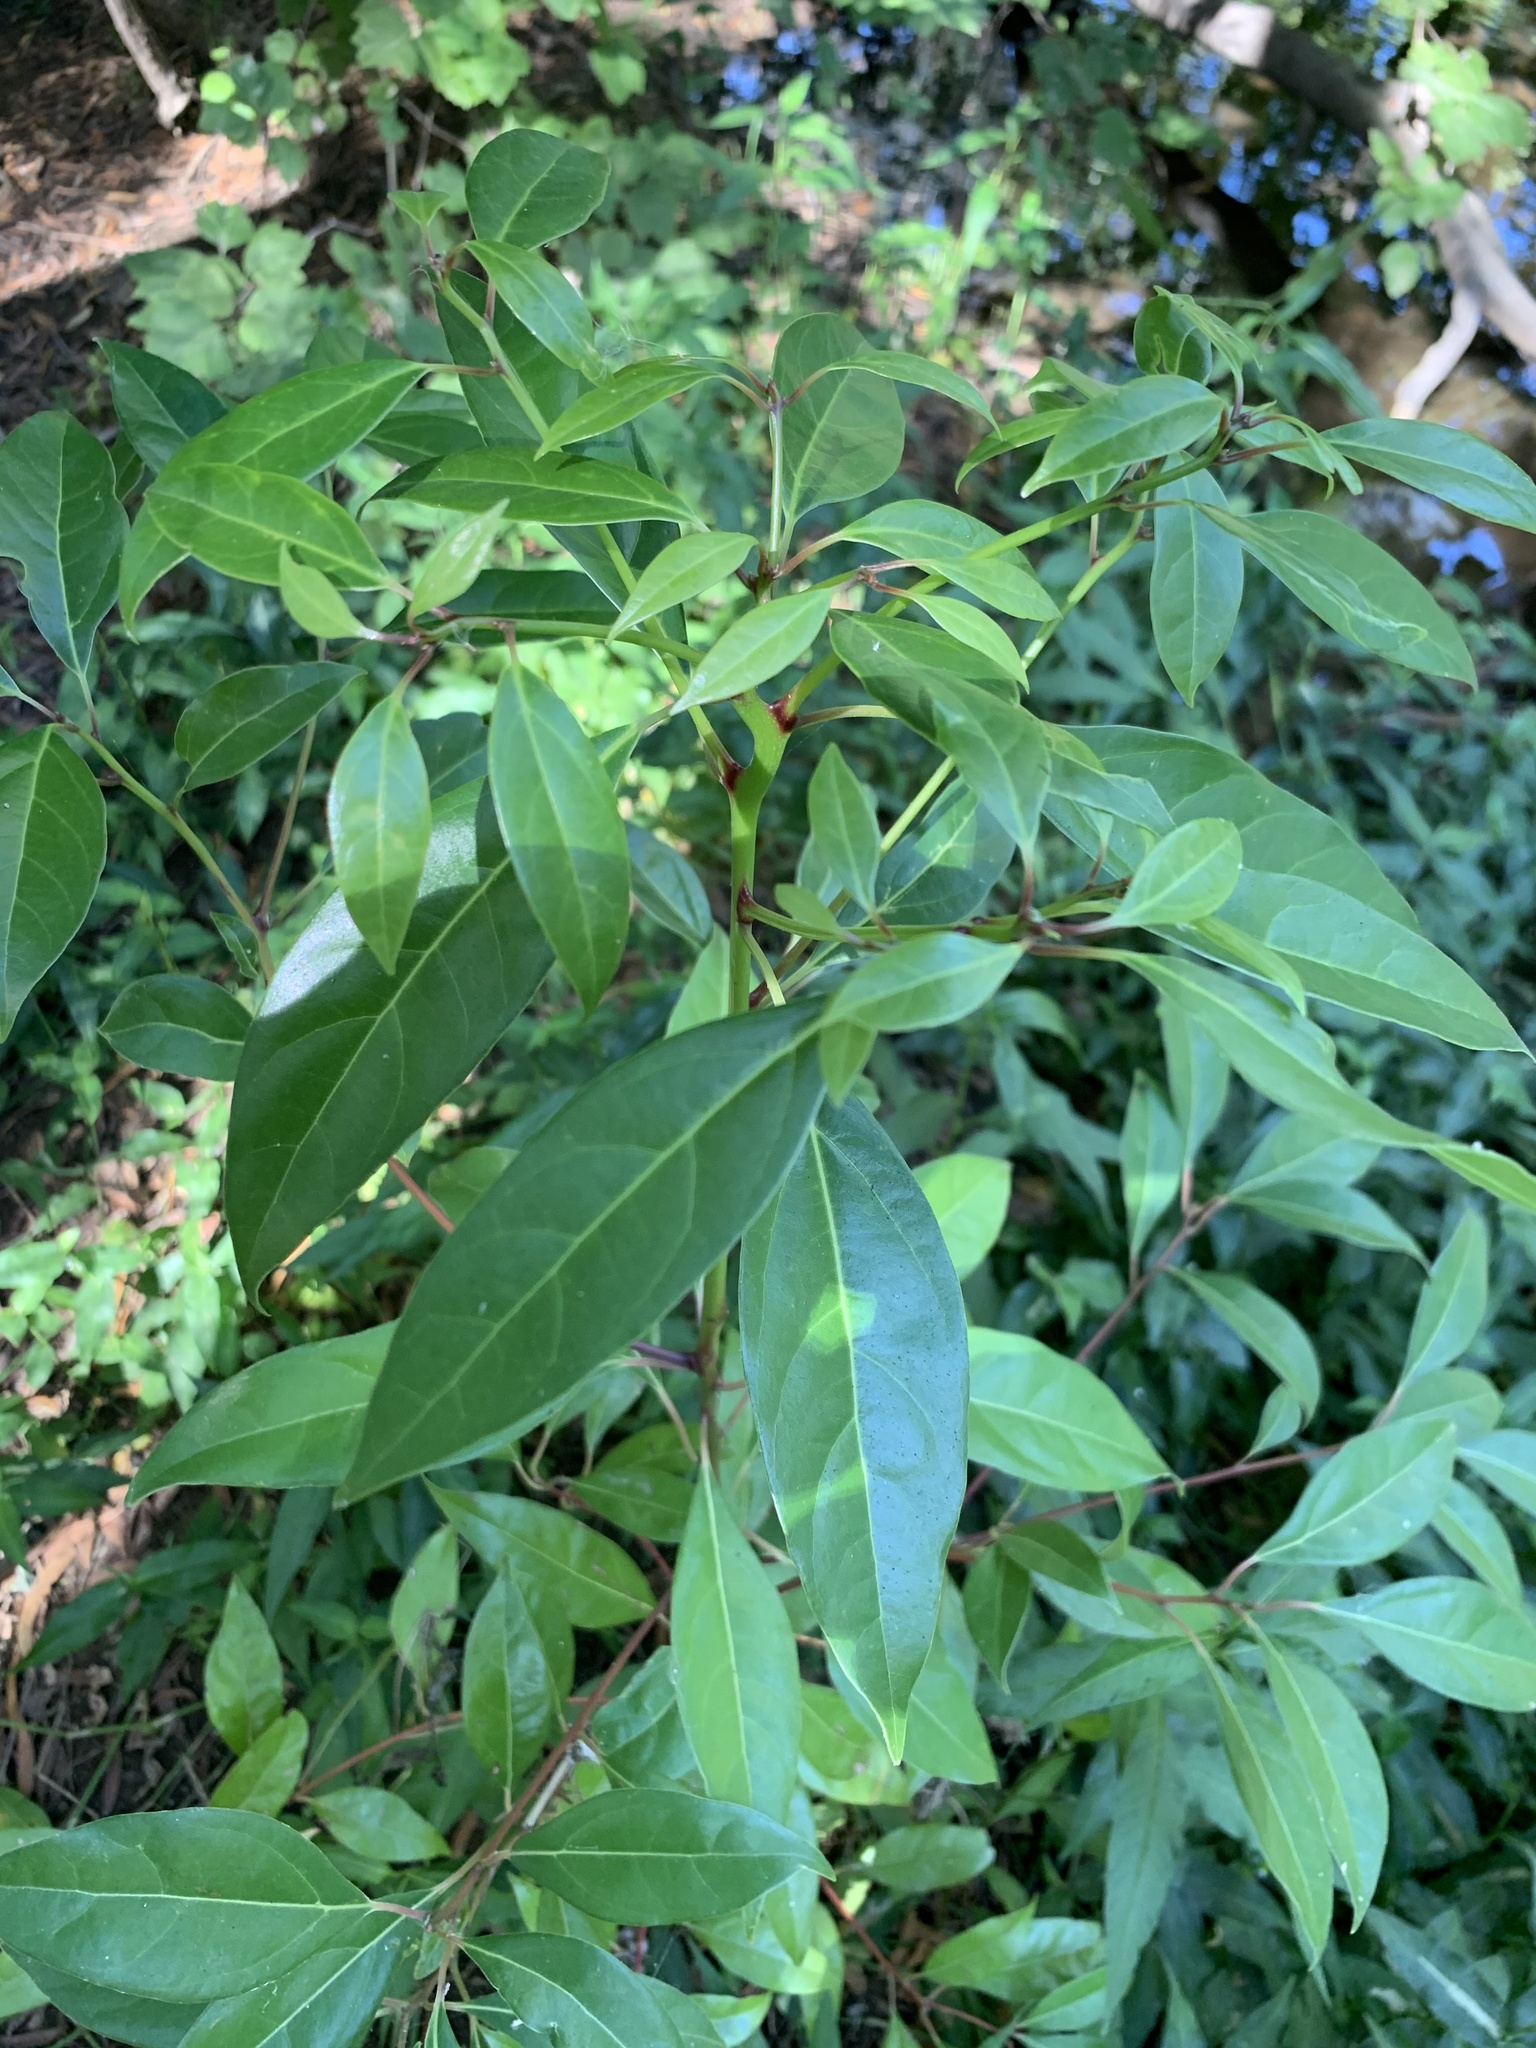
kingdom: Plantae
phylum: Tracheophyta
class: Magnoliopsida
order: Laurales
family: Lauraceae
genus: Cinnamomum
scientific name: Cinnamomum camphora
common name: Camphortree
